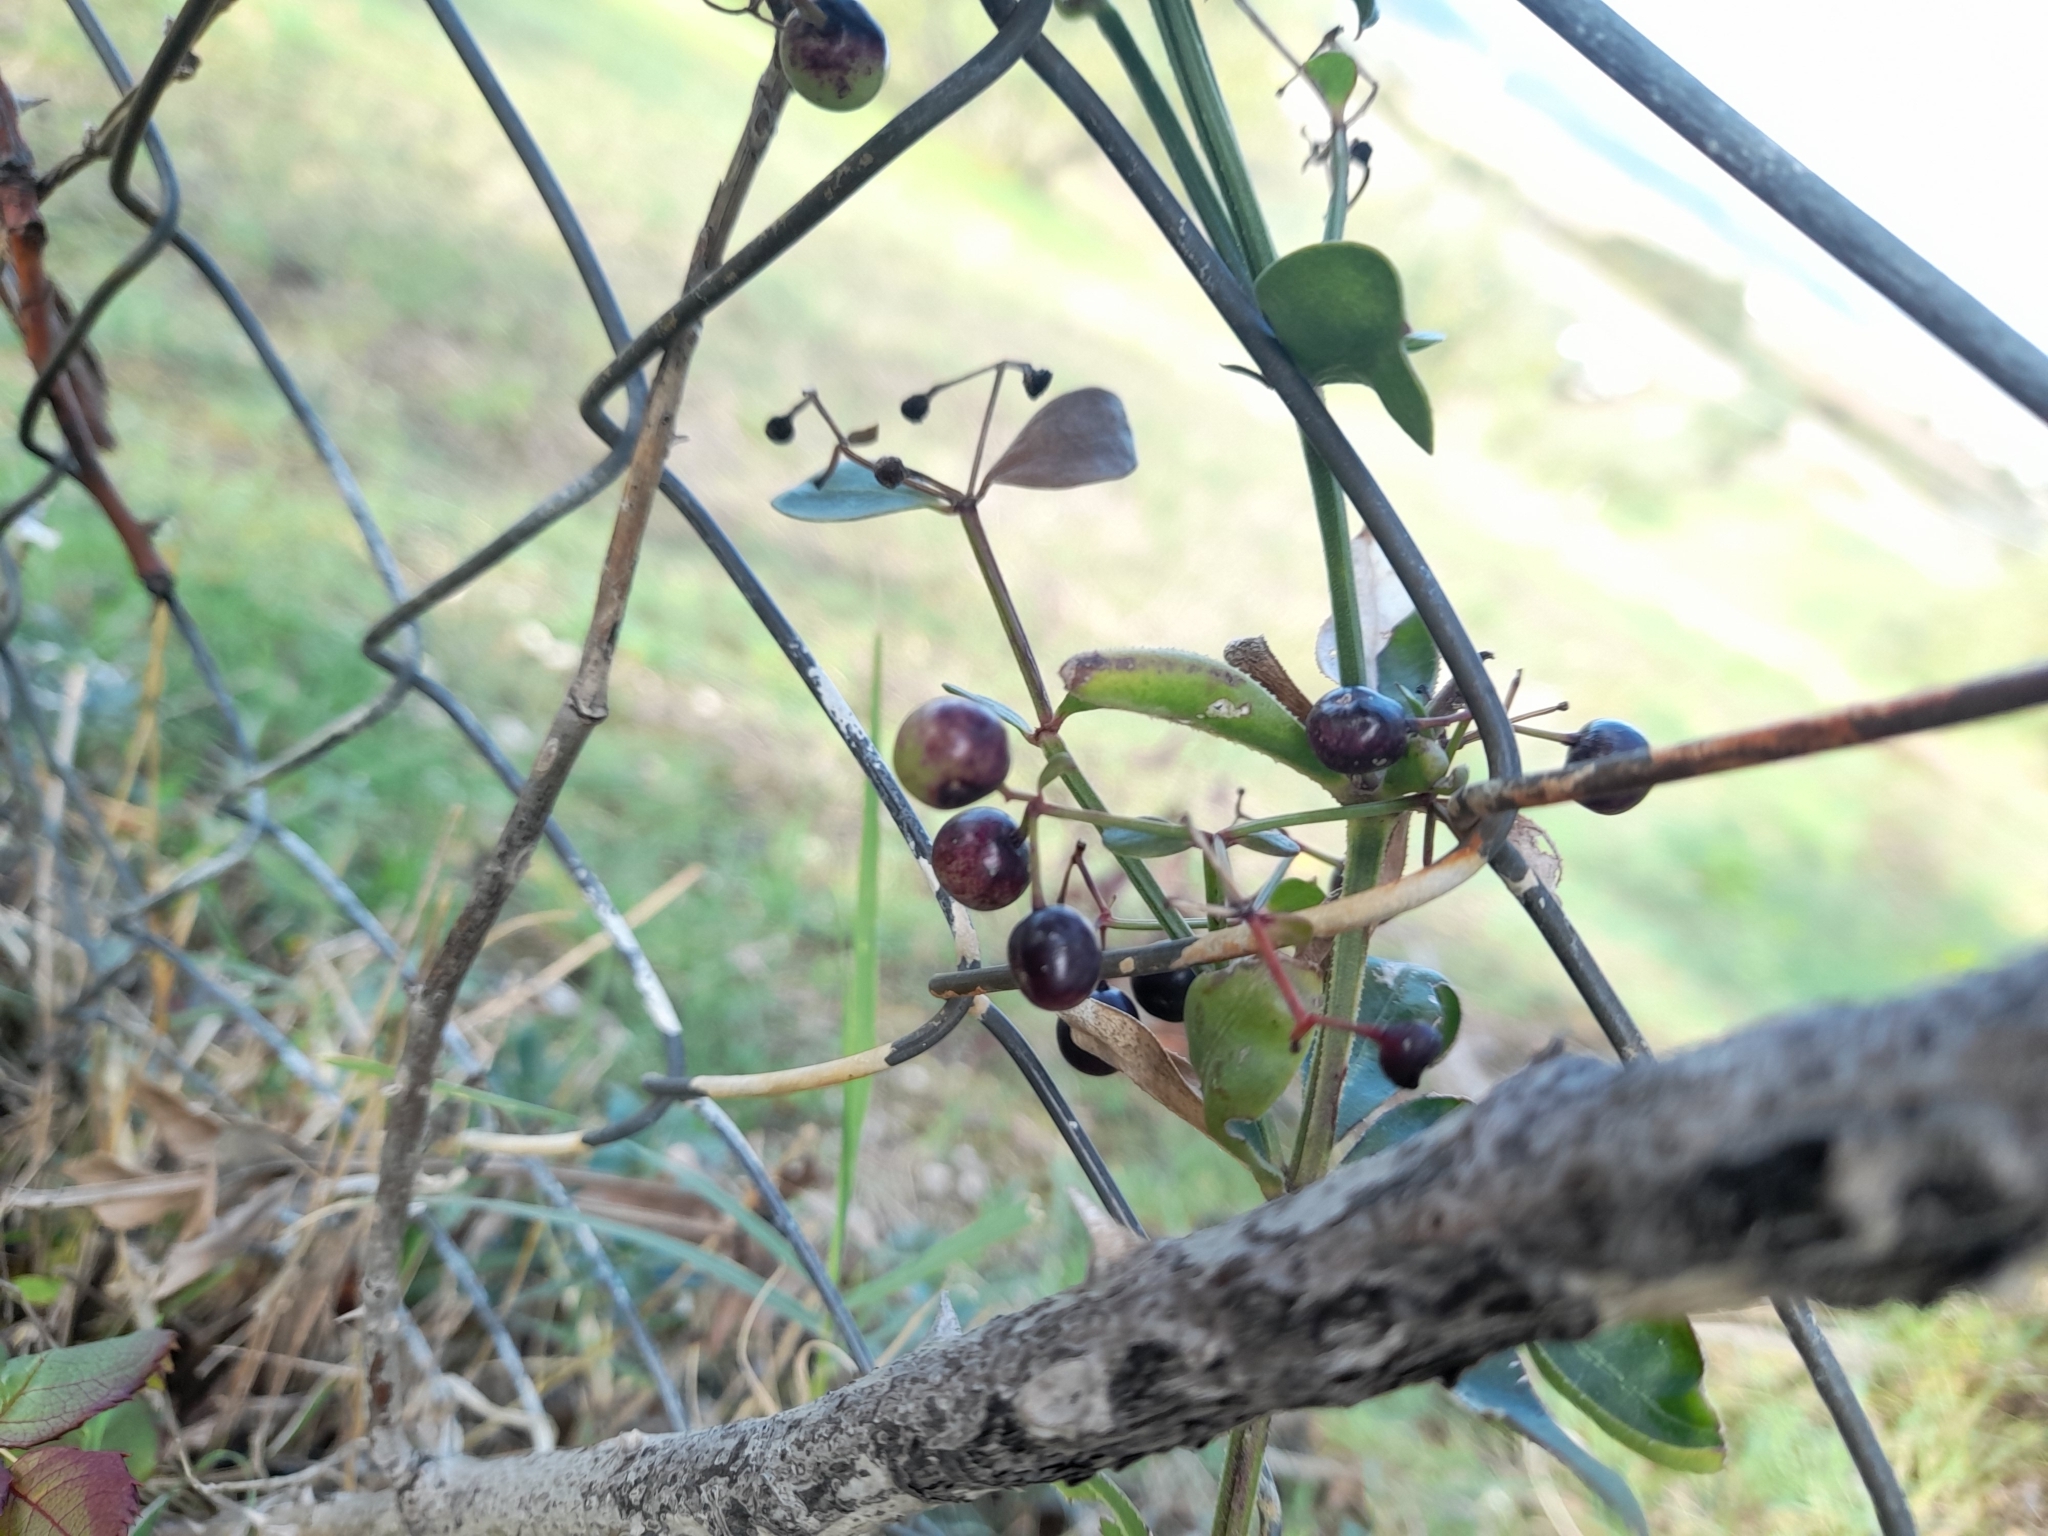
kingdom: Plantae
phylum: Tracheophyta
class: Magnoliopsida
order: Gentianales
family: Rubiaceae
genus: Rubia
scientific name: Rubia peregrina
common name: Wild madder
